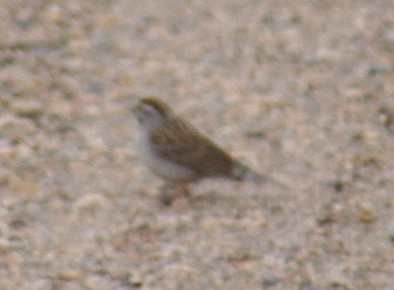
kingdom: Animalia
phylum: Chordata
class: Aves
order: Passeriformes
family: Passerellidae
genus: Spizella
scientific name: Spizella passerina
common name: Chipping sparrow
